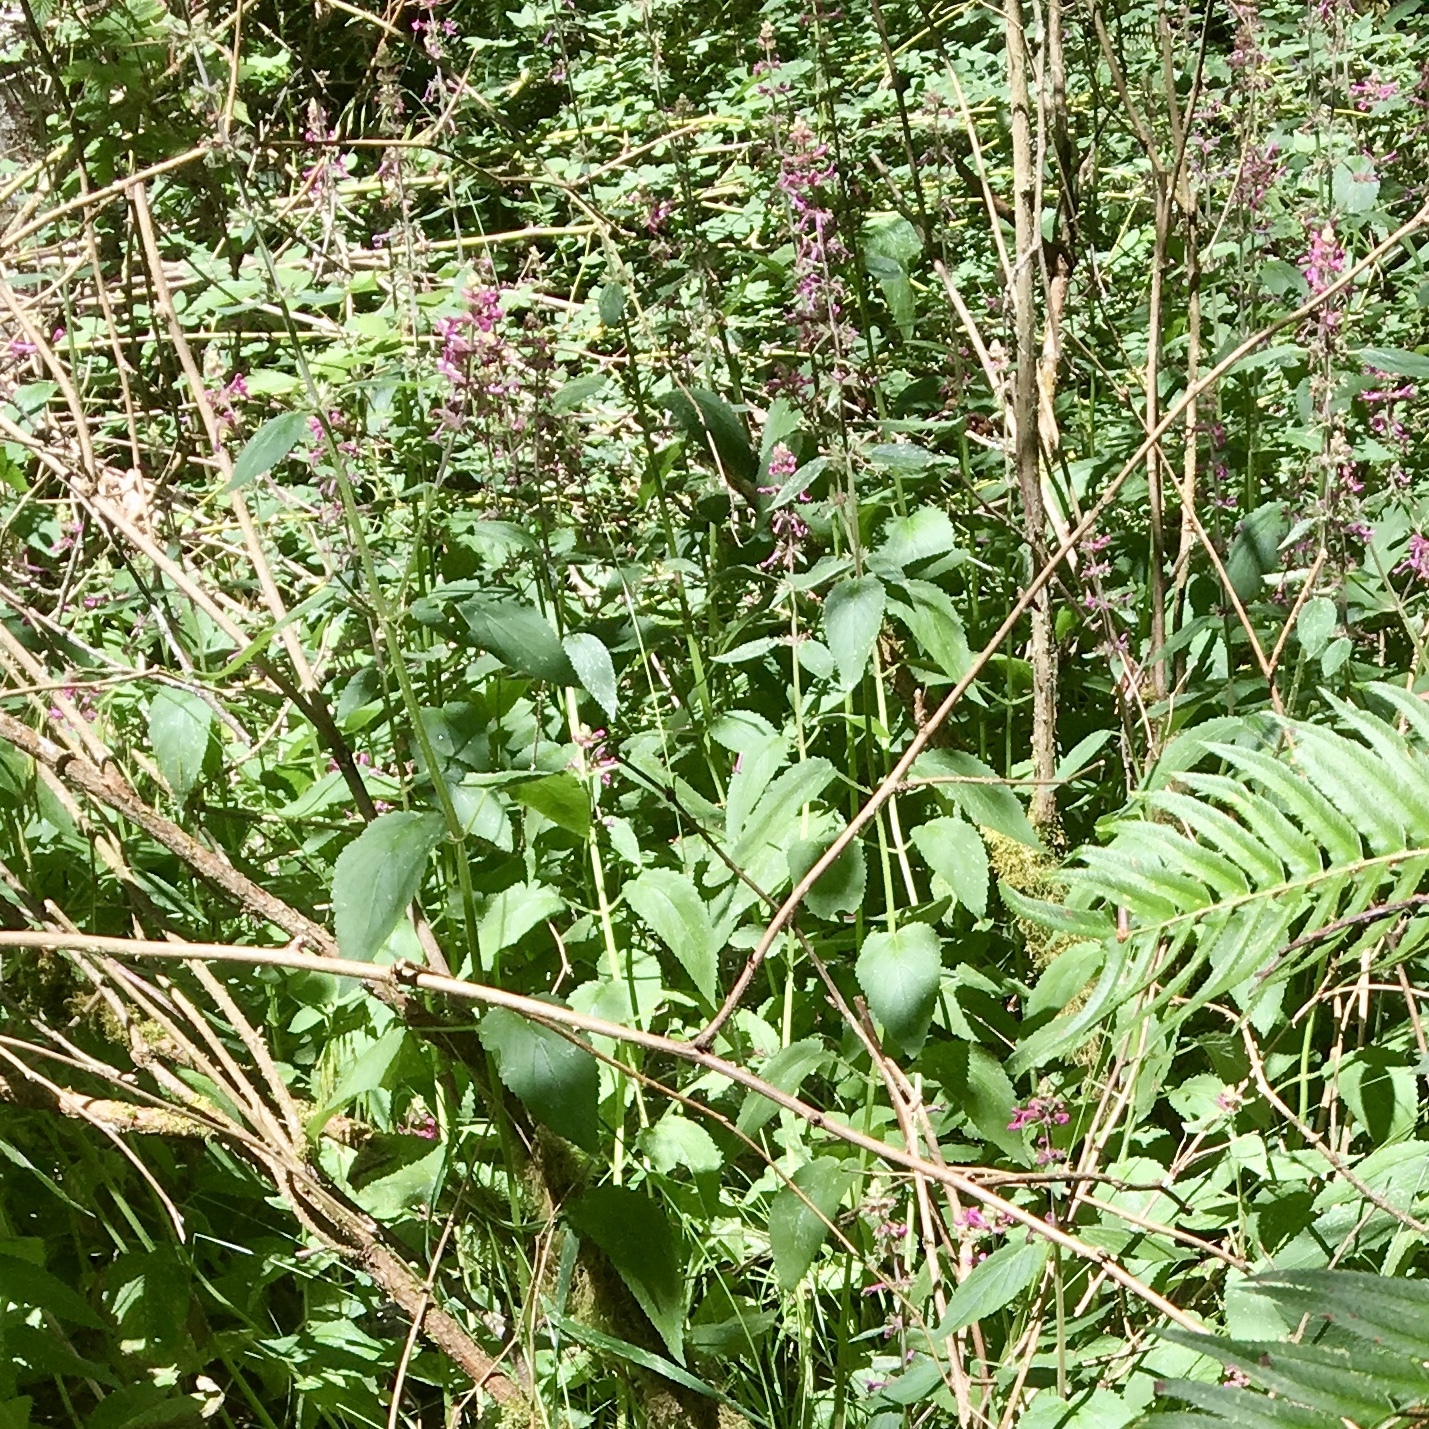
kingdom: Plantae
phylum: Tracheophyta
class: Magnoliopsida
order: Lamiales
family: Lamiaceae
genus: Stachys
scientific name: Stachys chamissonis
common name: Coastal hedge-nettle
